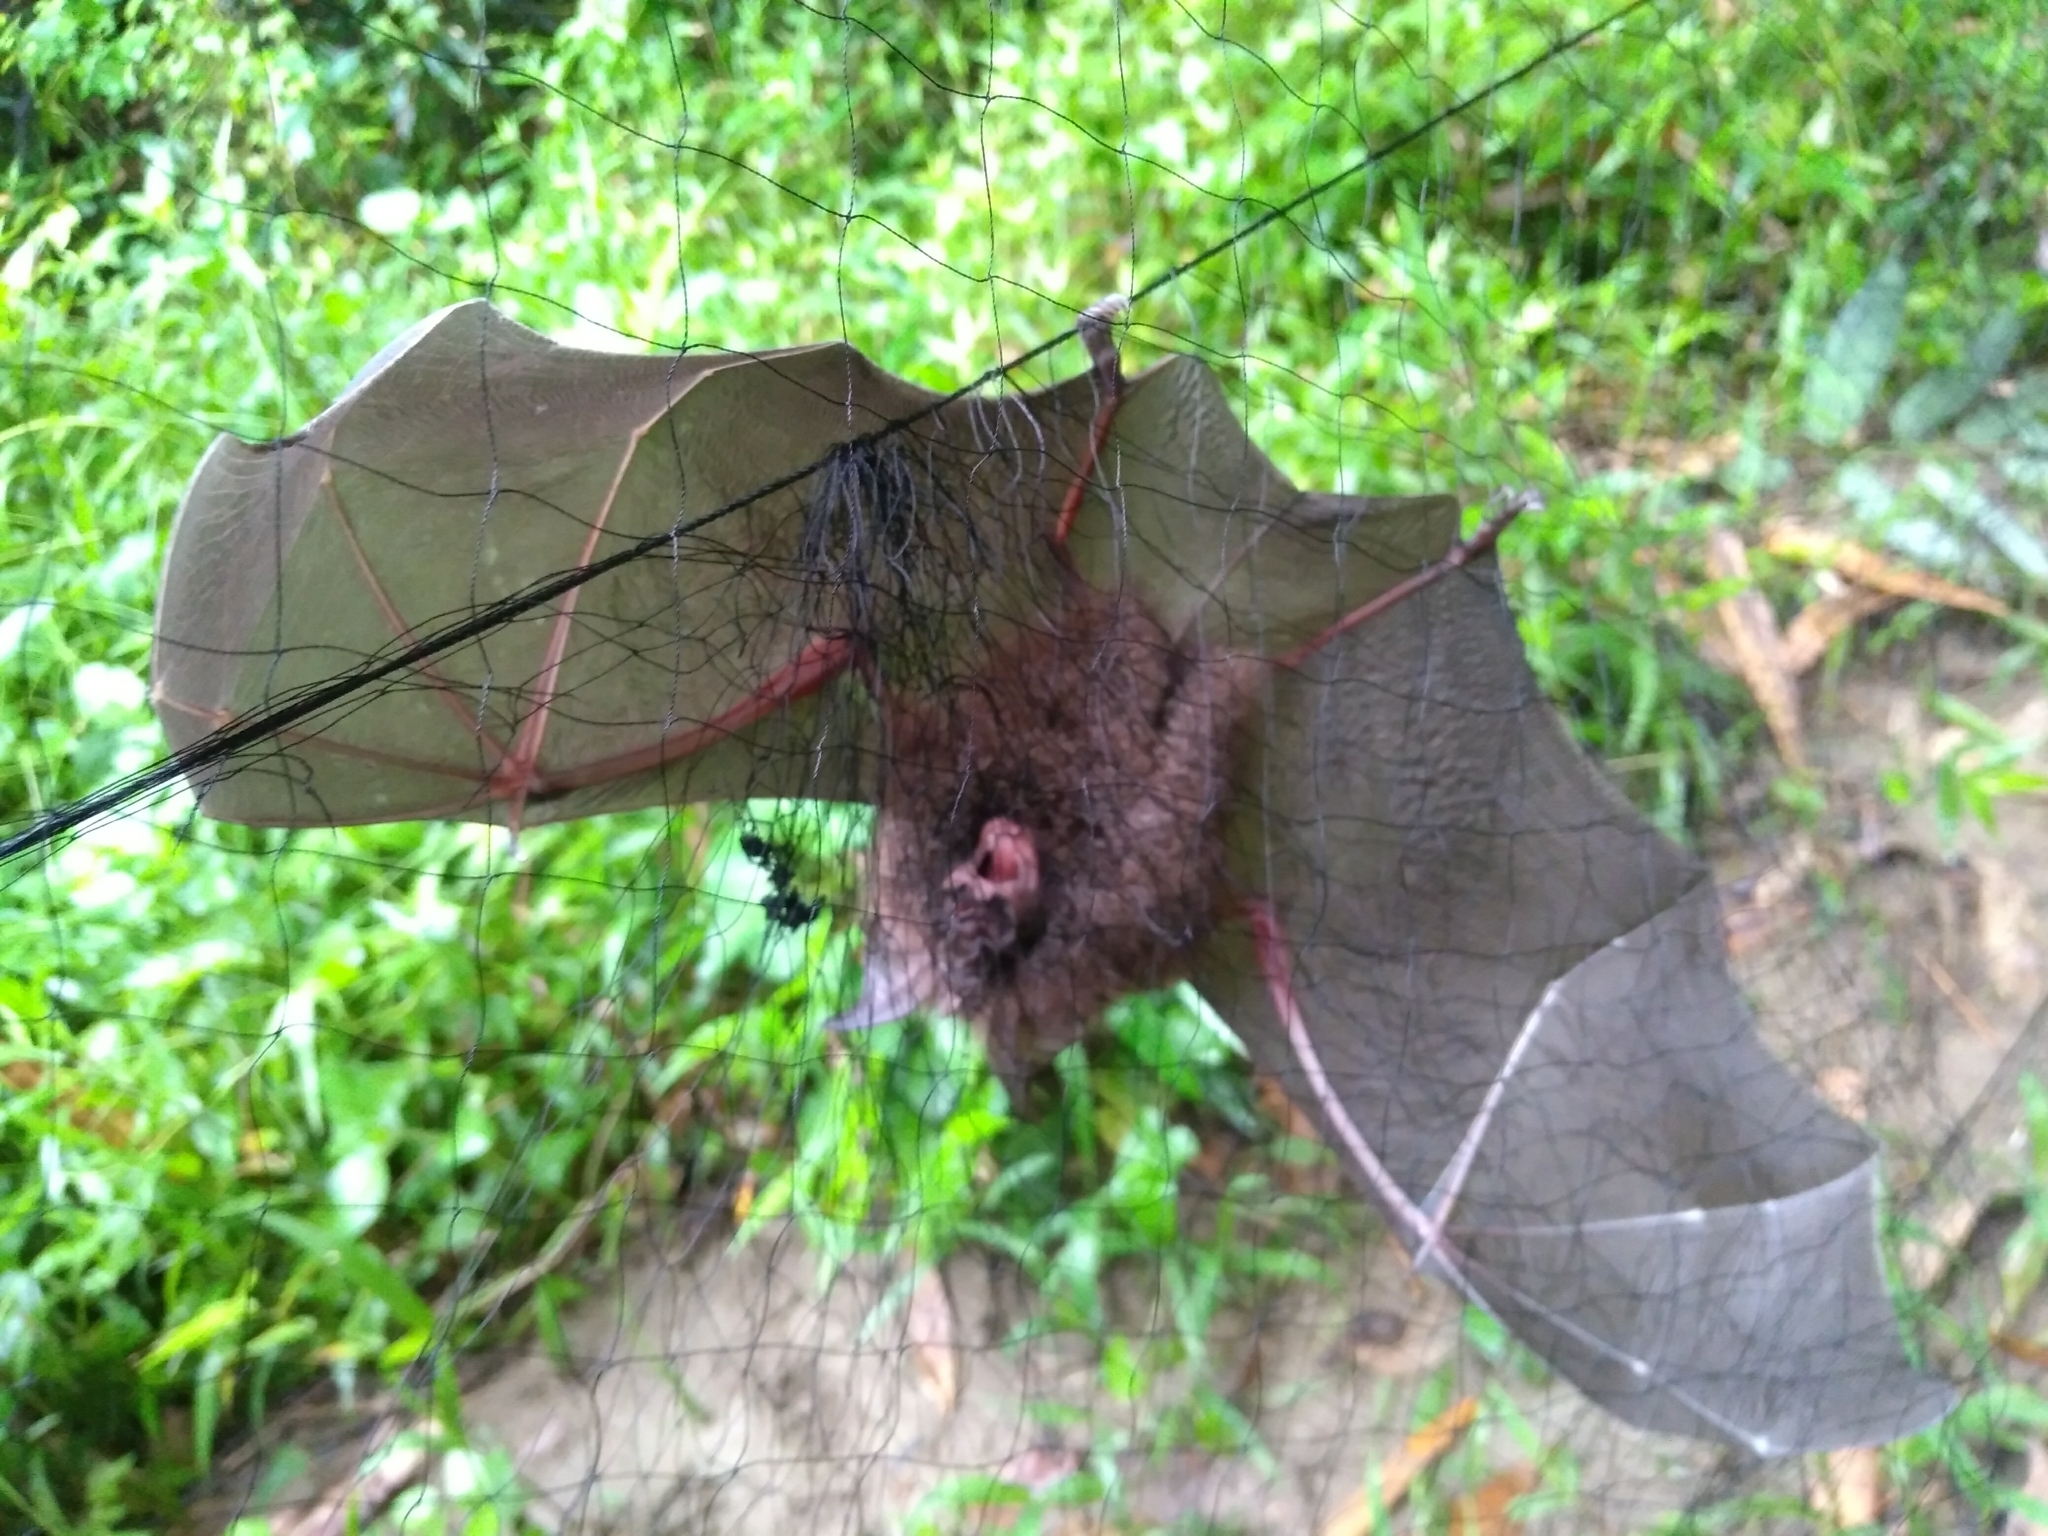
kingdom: Animalia
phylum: Chordata
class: Mammalia
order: Chiroptera
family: Rhinolophidae
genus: Rhinolophus
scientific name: Rhinolophus formosae
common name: Formosan woolly horseshoe bat
